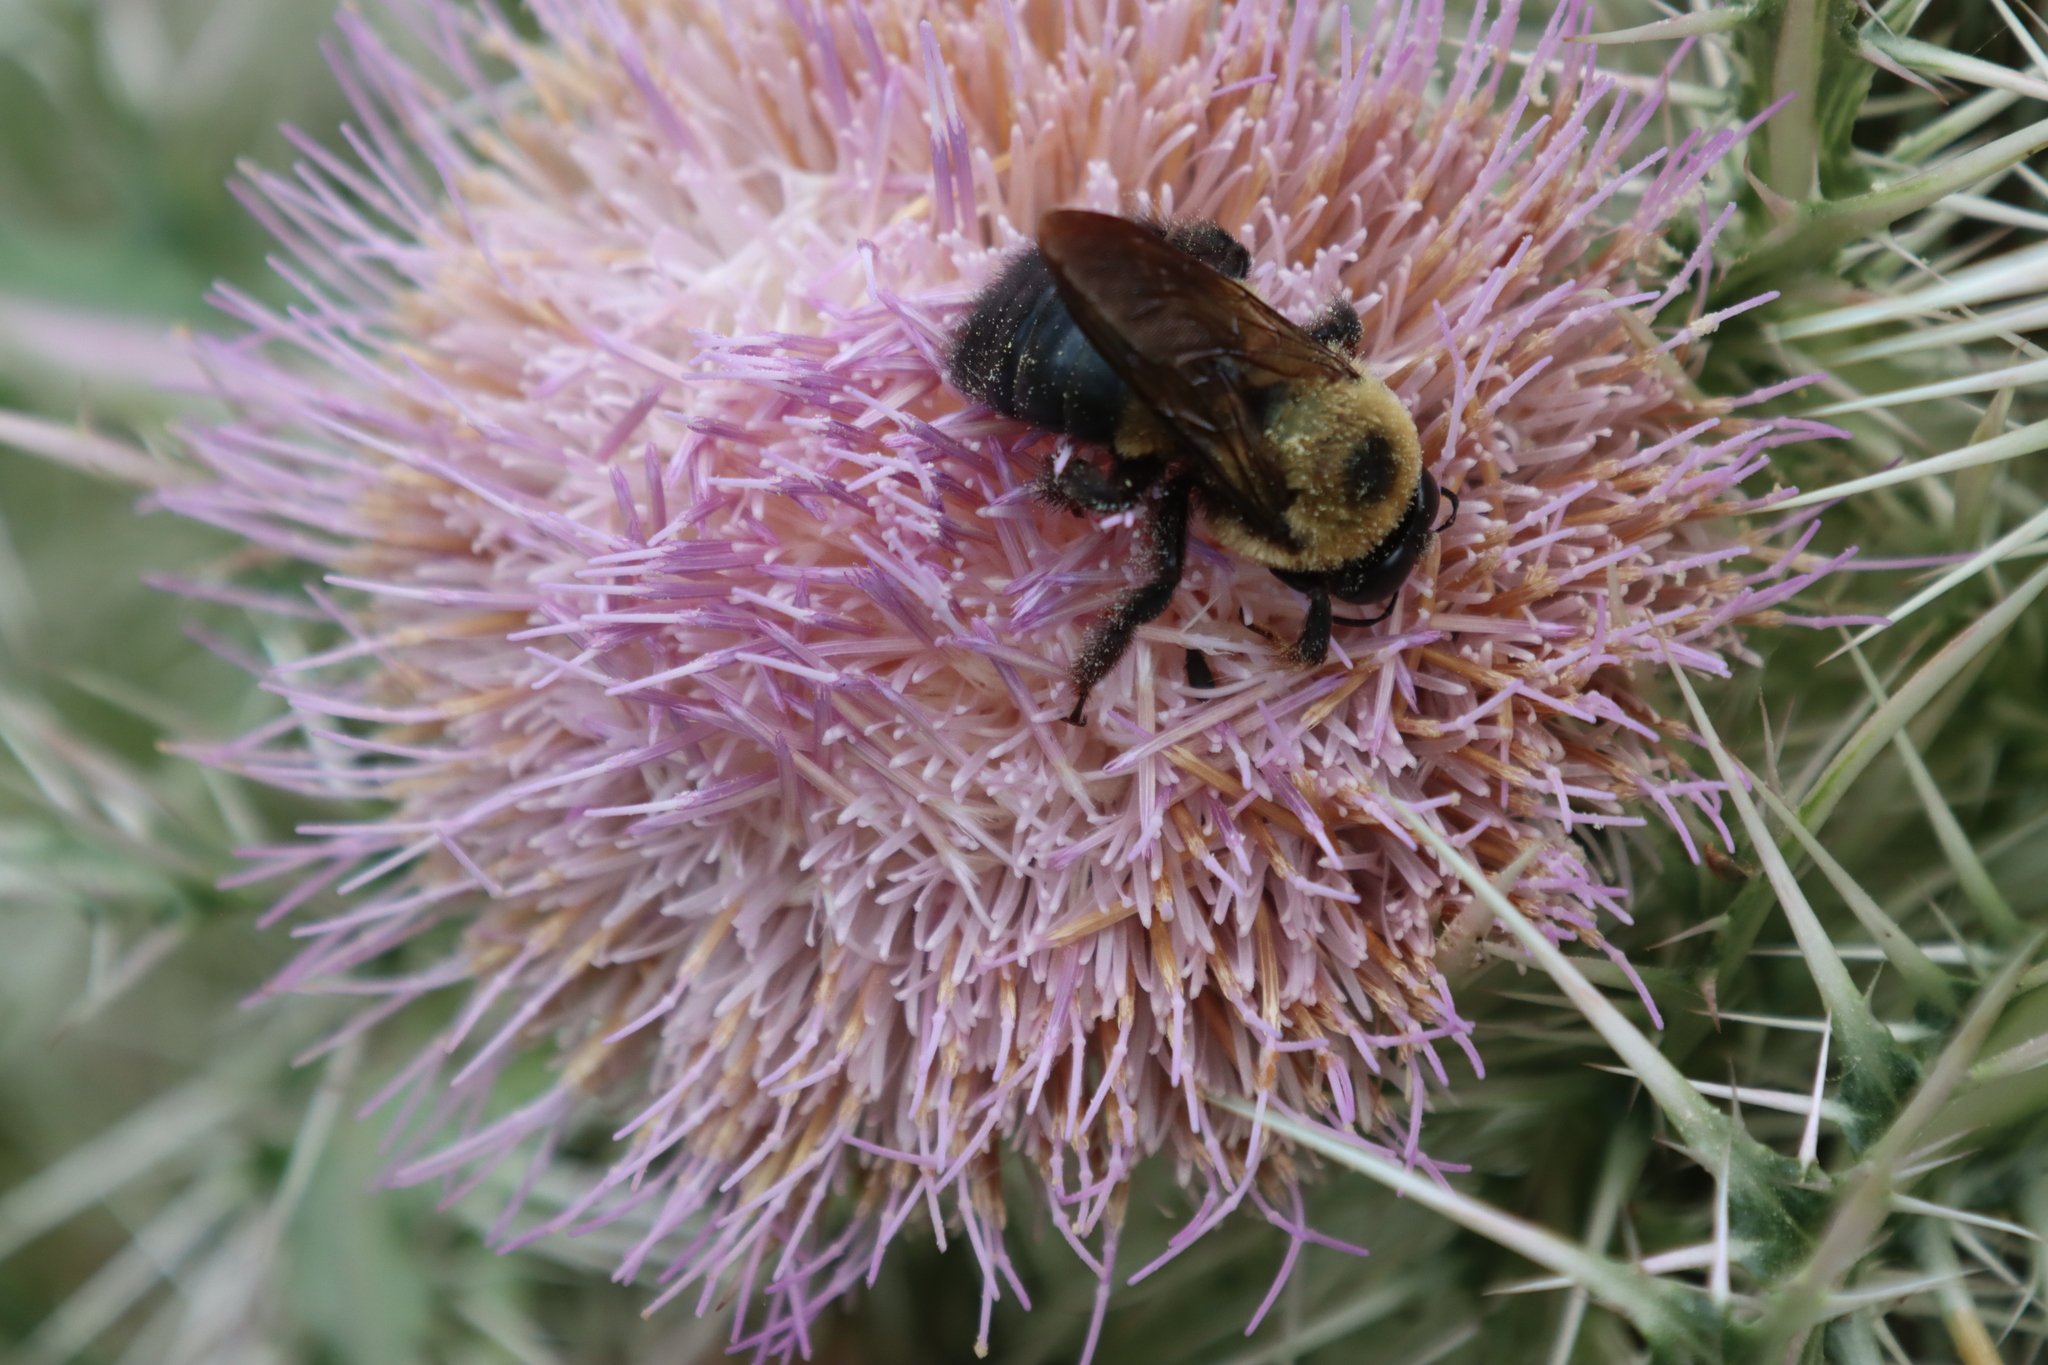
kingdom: Animalia
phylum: Arthropoda
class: Insecta
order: Hymenoptera
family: Apidae
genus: Xylocopa
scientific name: Xylocopa virginica
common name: Carpenter bee
